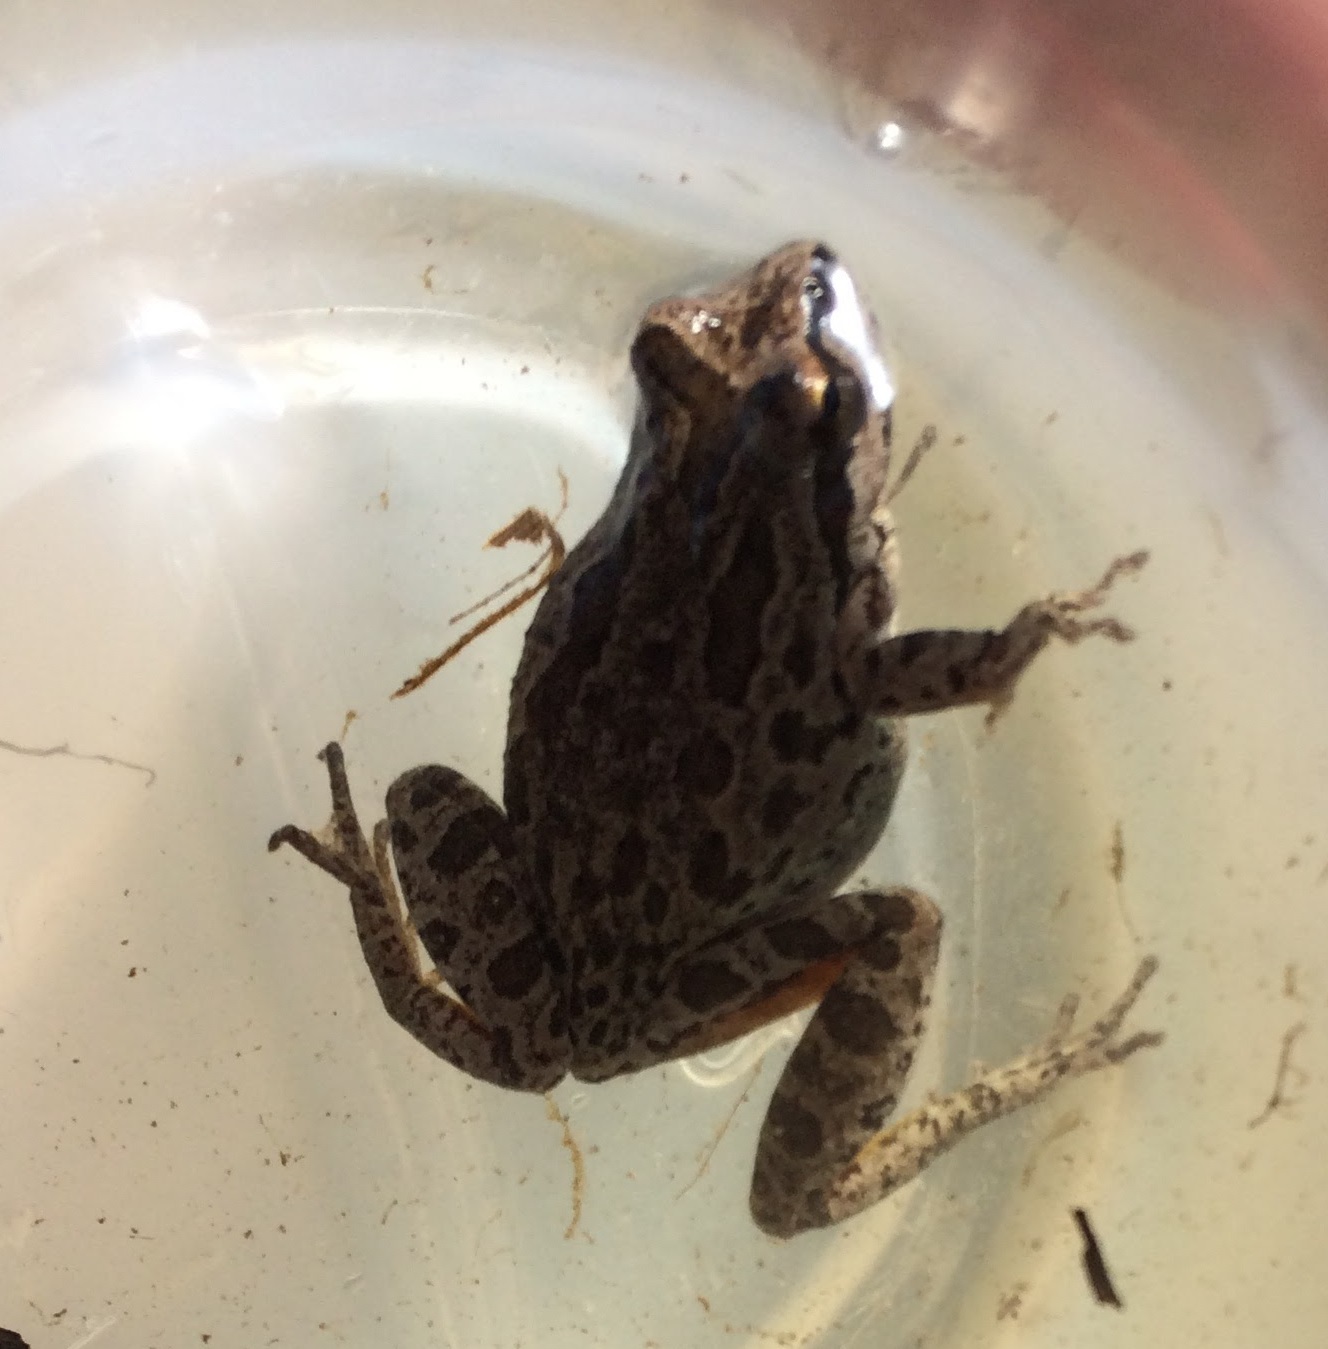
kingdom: Animalia
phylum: Chordata
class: Amphibia
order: Anura
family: Hylidae
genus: Pseudacris
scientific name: Pseudacris regilla
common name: Pacific chorus frog
